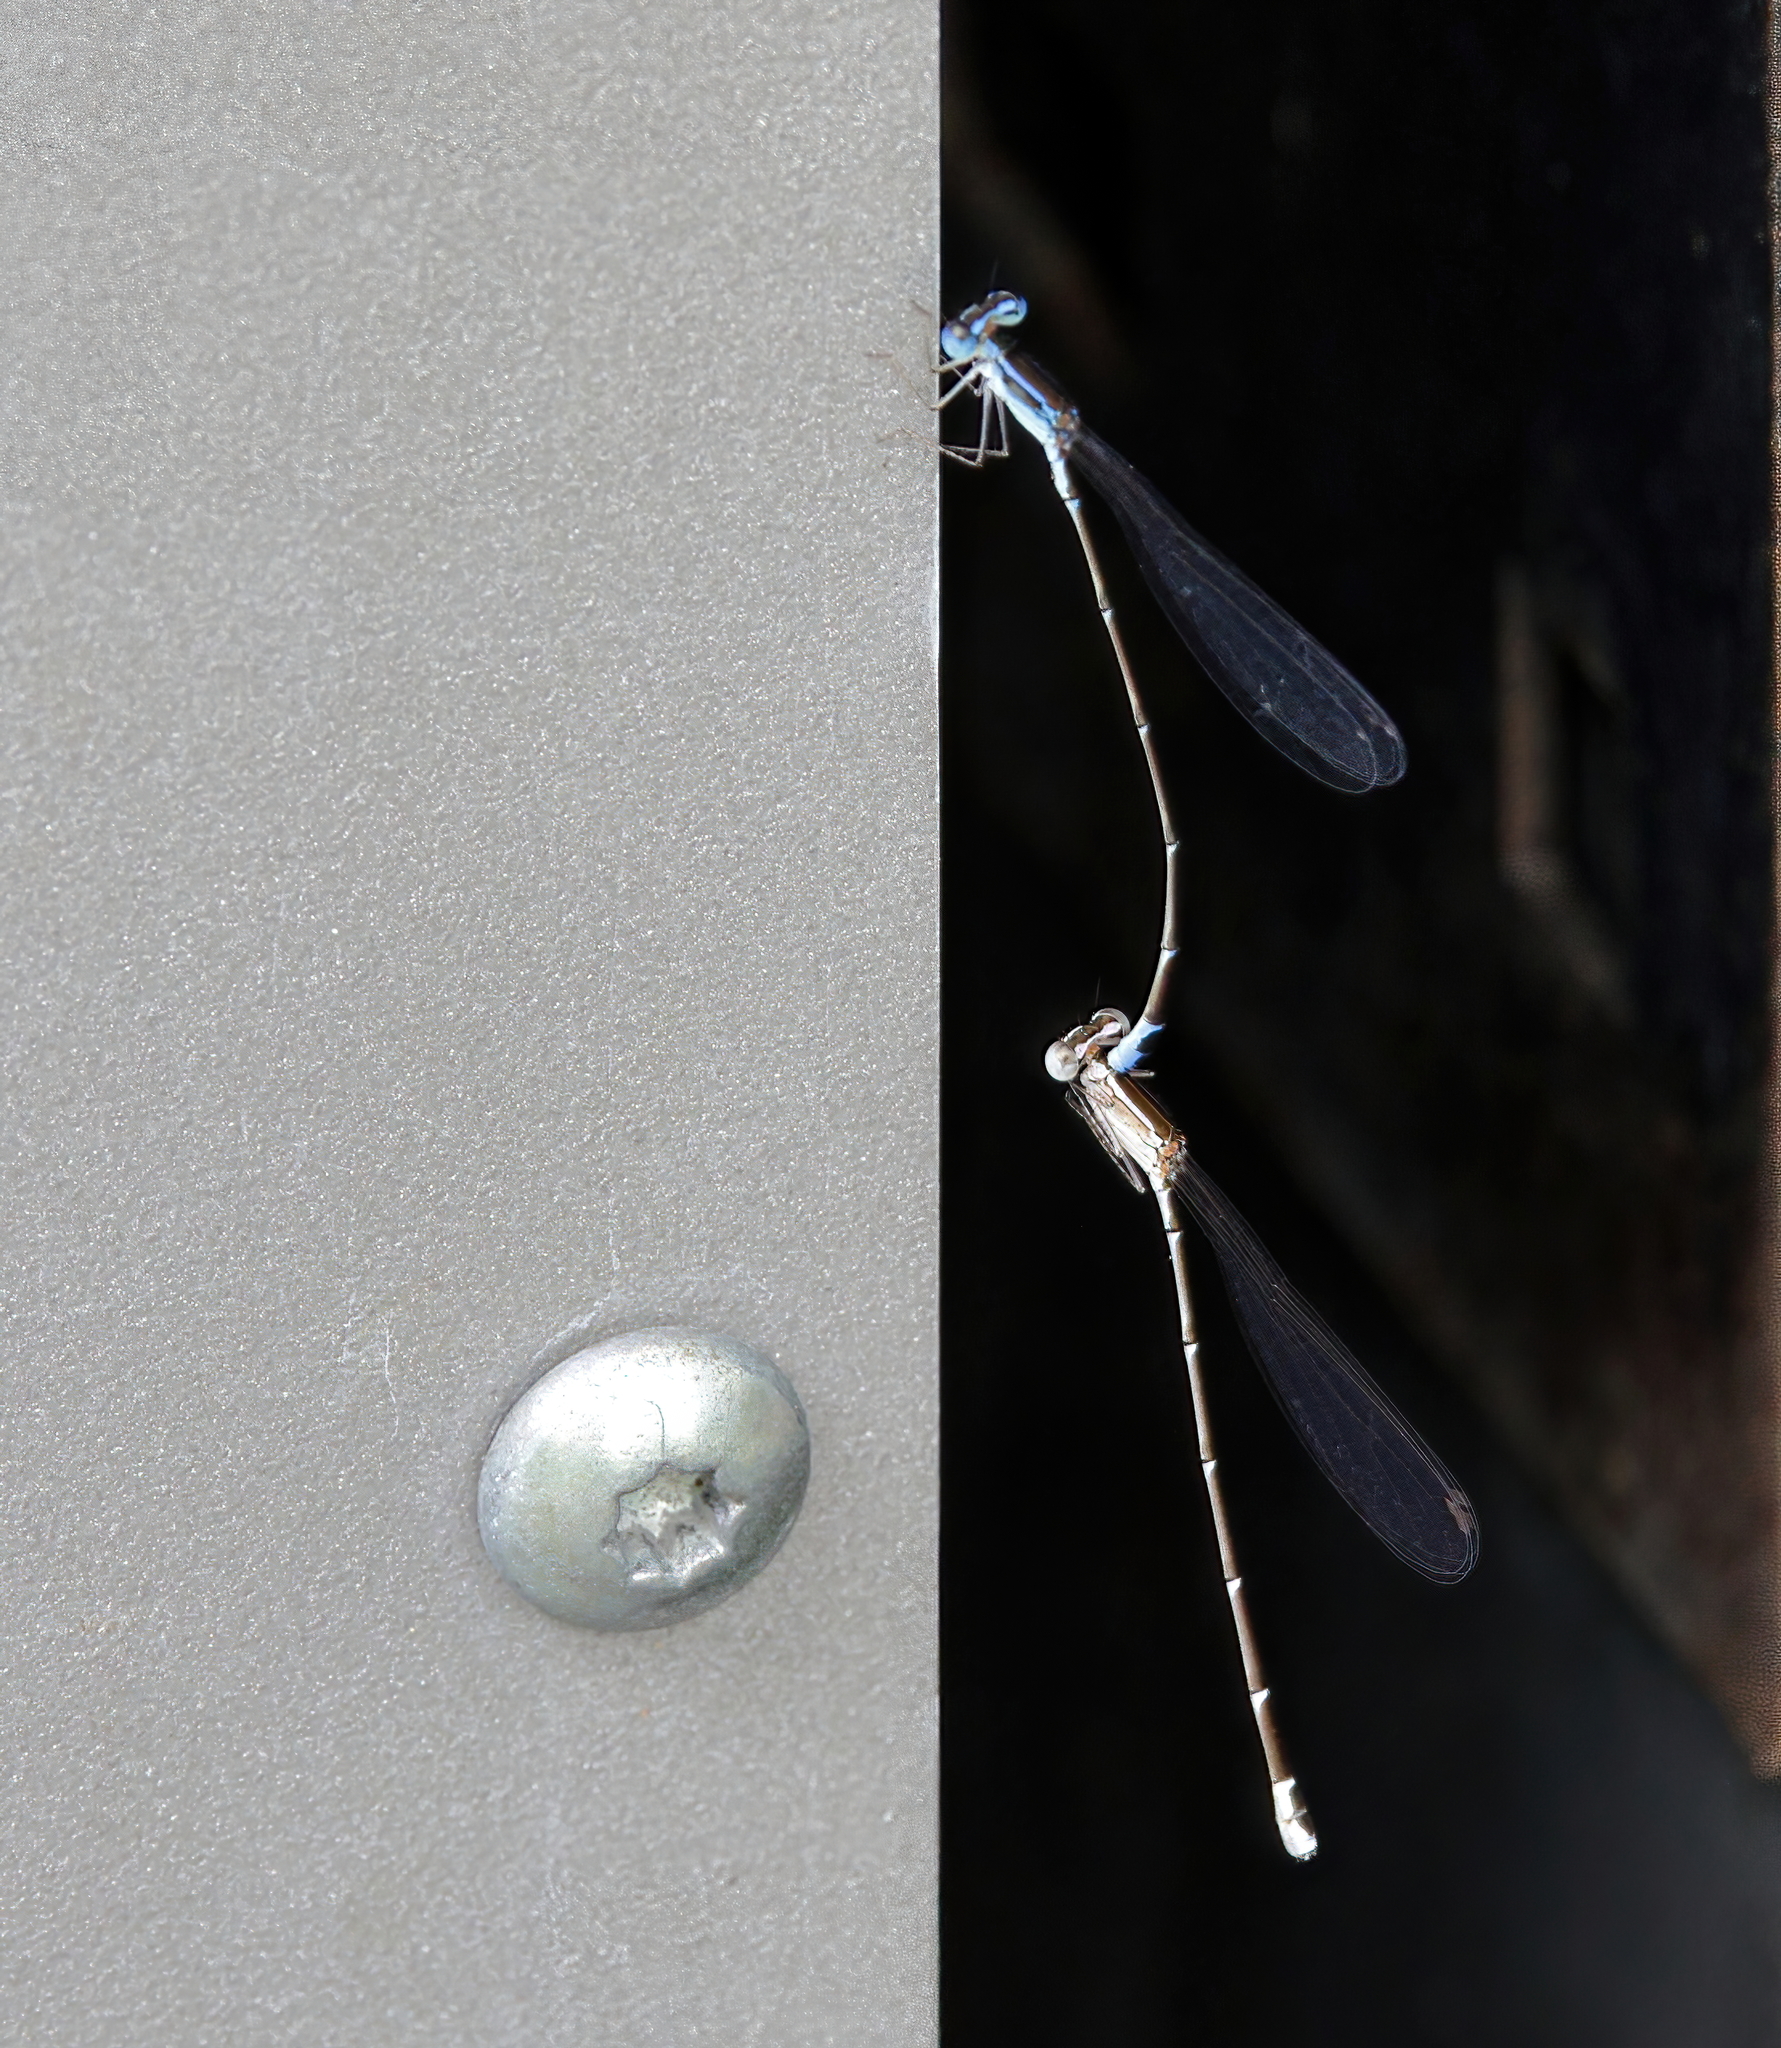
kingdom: Animalia
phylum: Arthropoda
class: Insecta
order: Odonata
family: Coenagrionidae
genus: Nehalennia
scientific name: Nehalennia pallidula
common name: Everglades sprite
